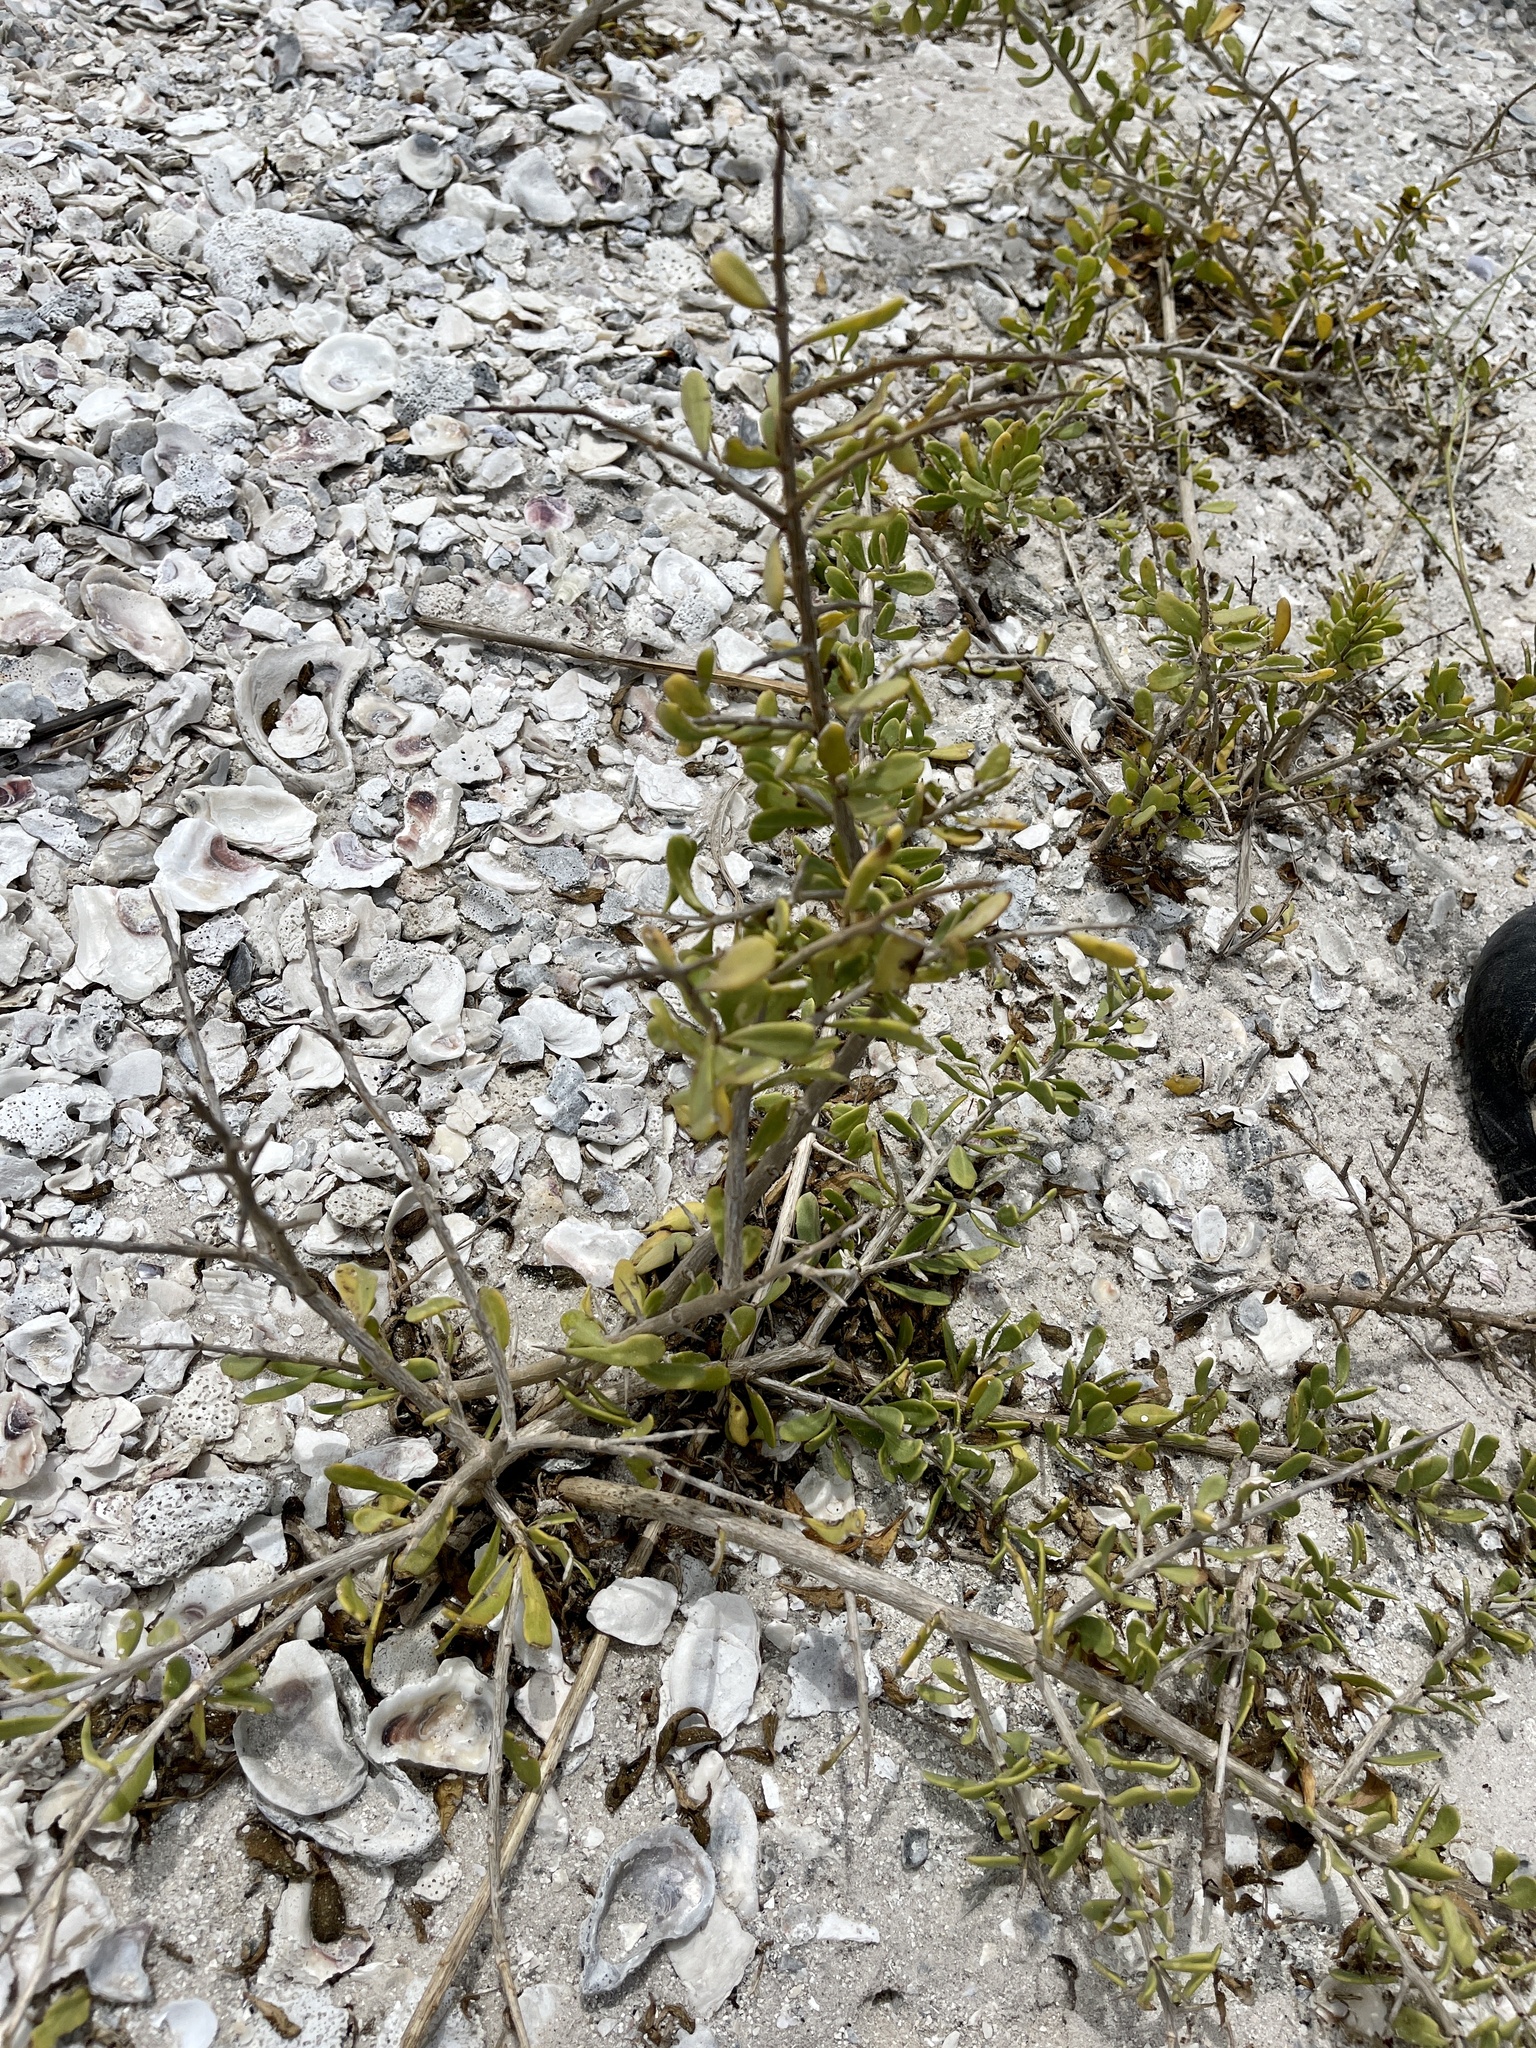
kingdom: Plantae
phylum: Tracheophyta
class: Magnoliopsida
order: Solanales
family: Solanaceae
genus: Lycium
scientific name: Lycium carolinianum
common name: Christmasberry
